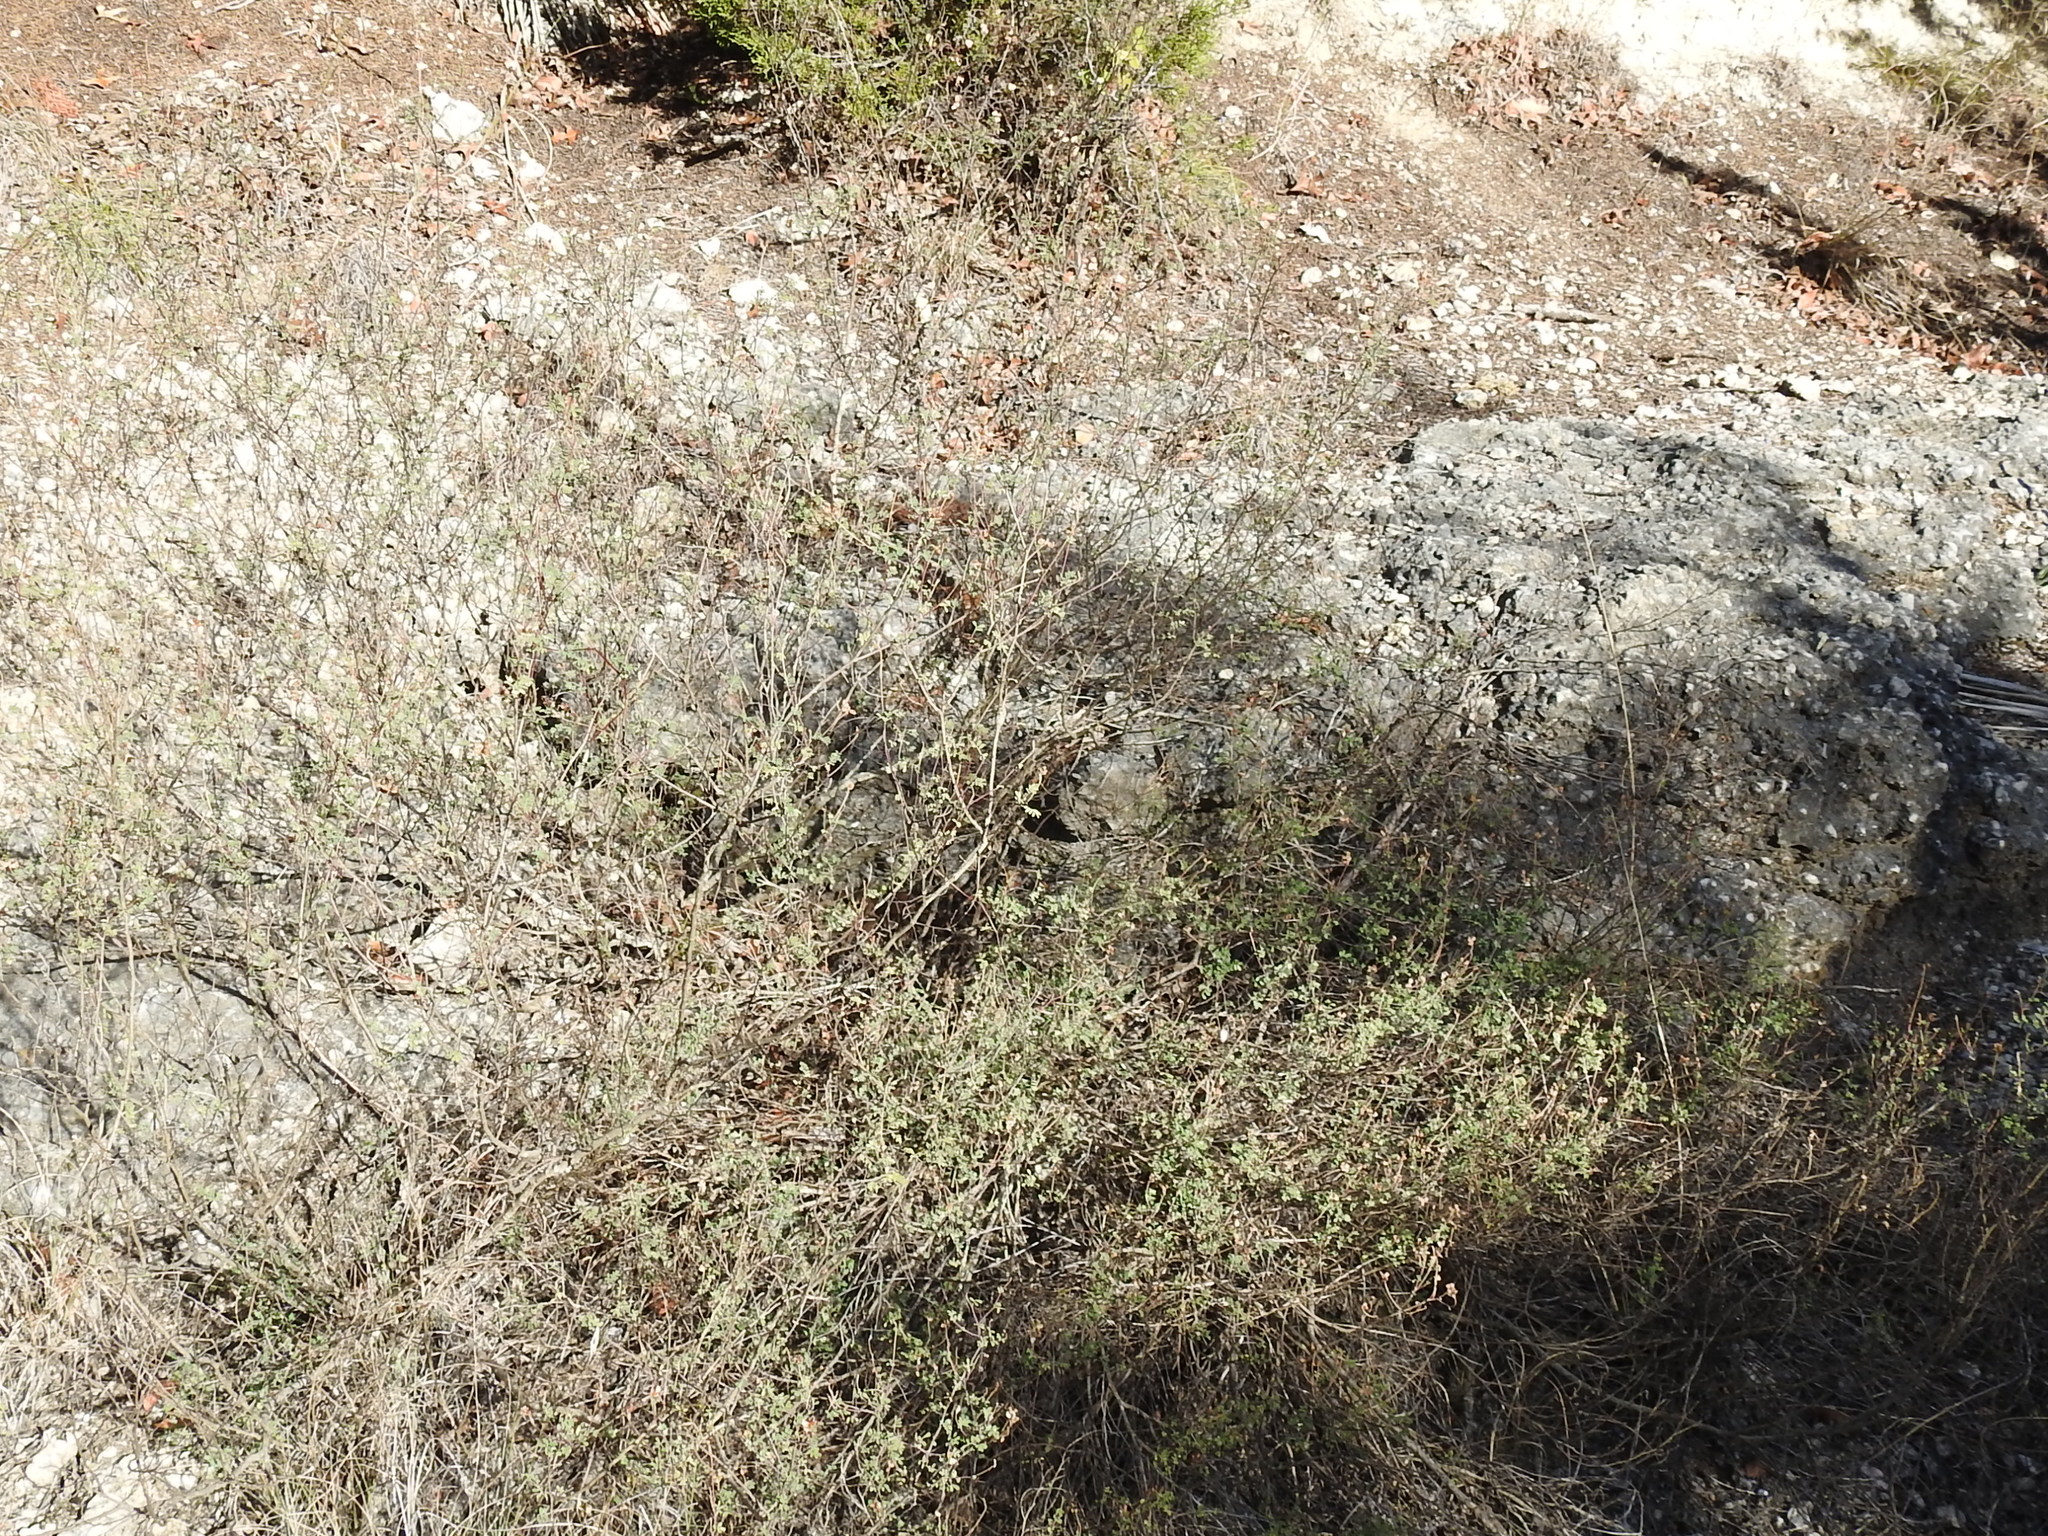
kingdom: Plantae
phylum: Tracheophyta
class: Magnoliopsida
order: Fabales
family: Fabaceae
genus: Dalea
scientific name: Dalea frutescens
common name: Black dalea
